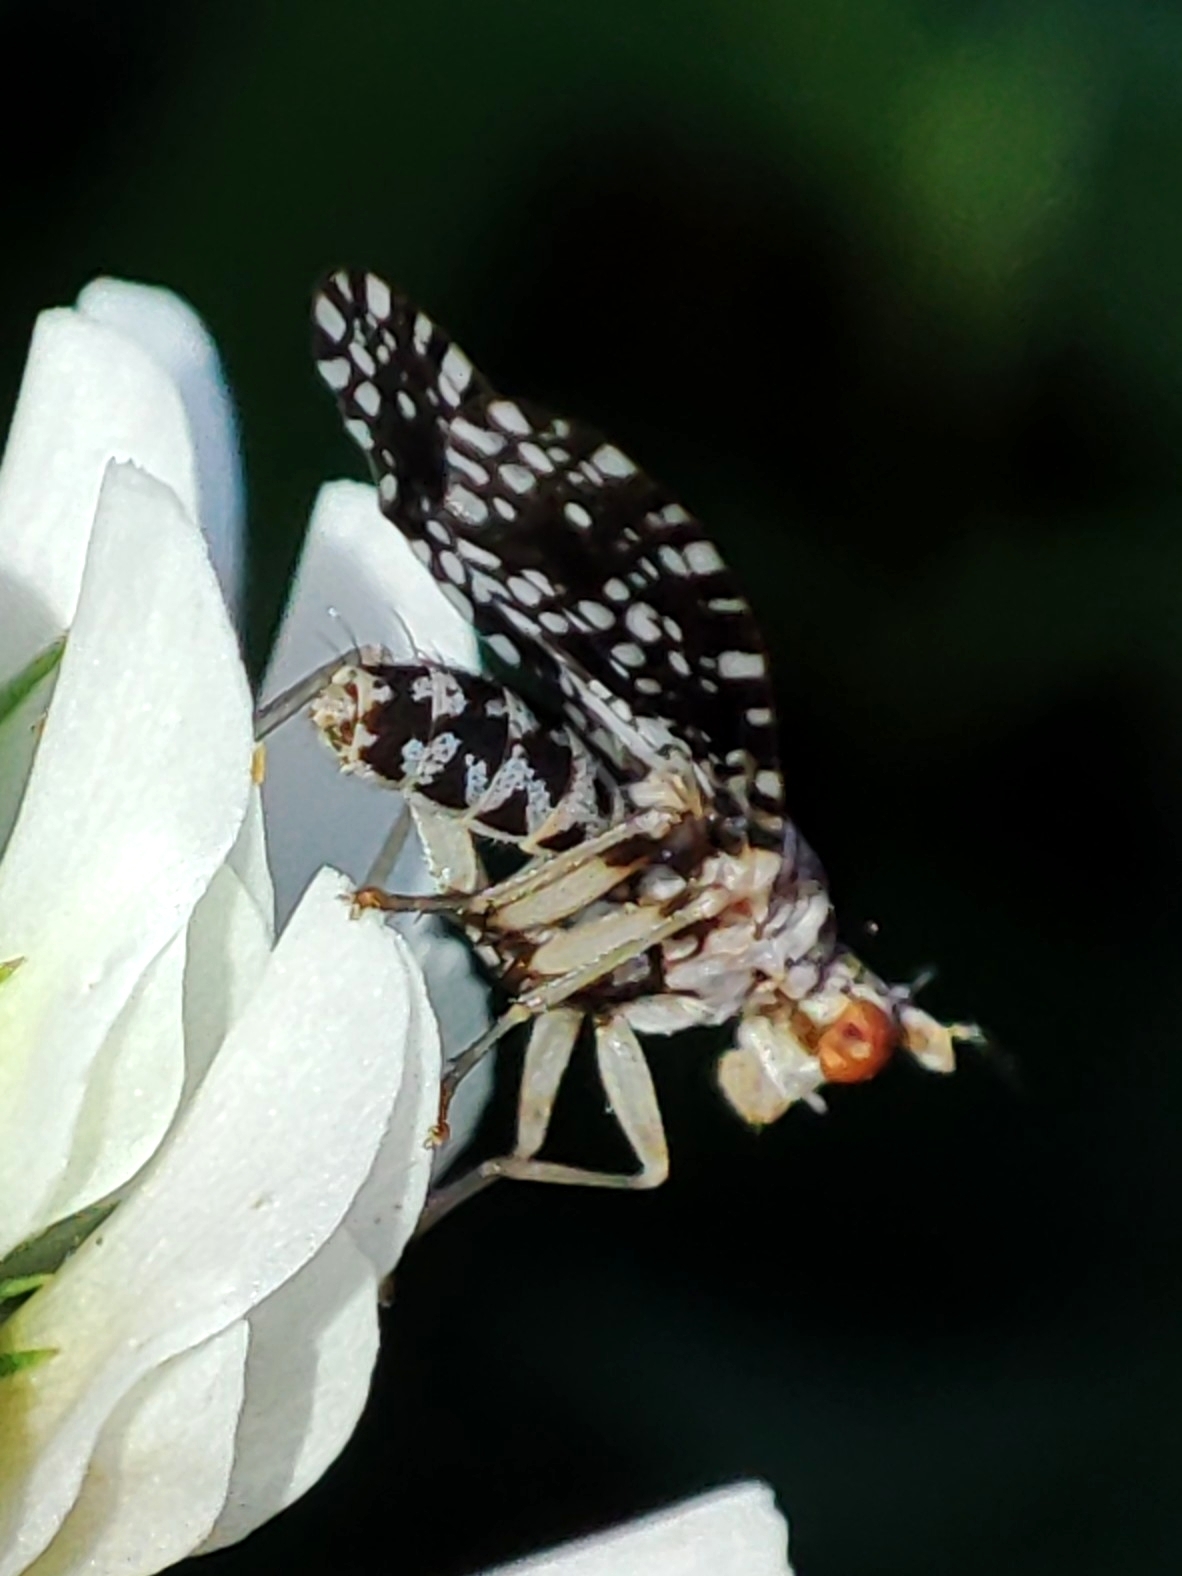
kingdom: Animalia
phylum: Arthropoda
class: Insecta
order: Diptera
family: Sciomyzidae
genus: Trypetoptera
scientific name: Trypetoptera punctulata
